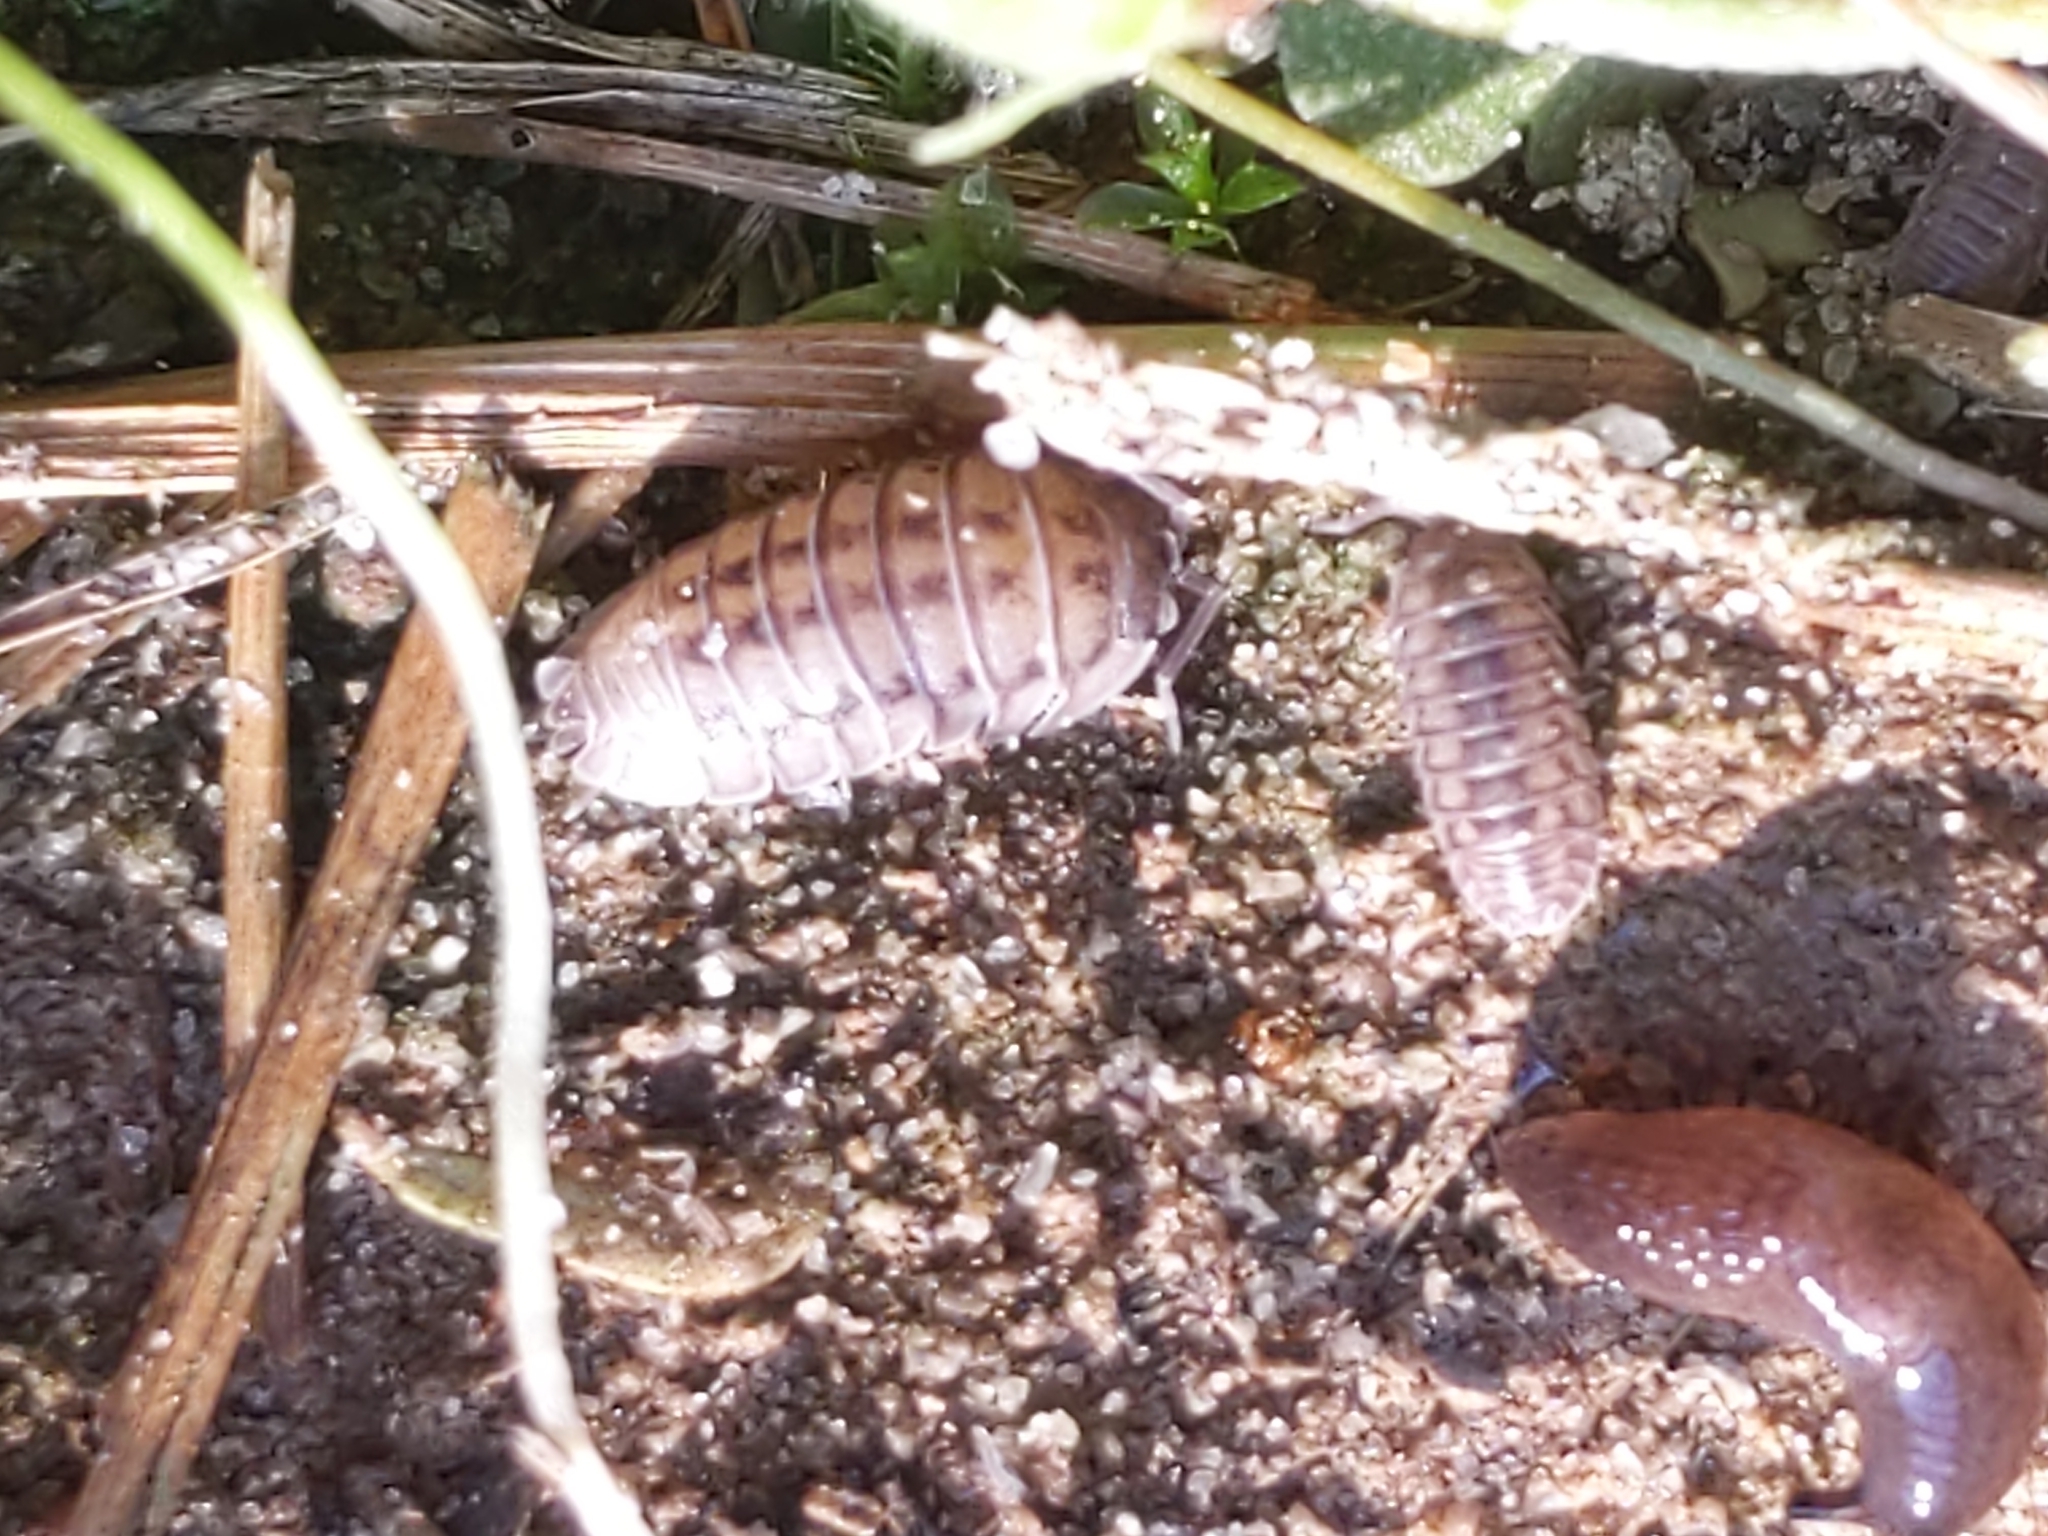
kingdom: Animalia
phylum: Arthropoda
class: Malacostraca
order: Isopoda
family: Armadillidiidae
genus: Armadillidium
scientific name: Armadillidium nasatum
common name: Isopod
